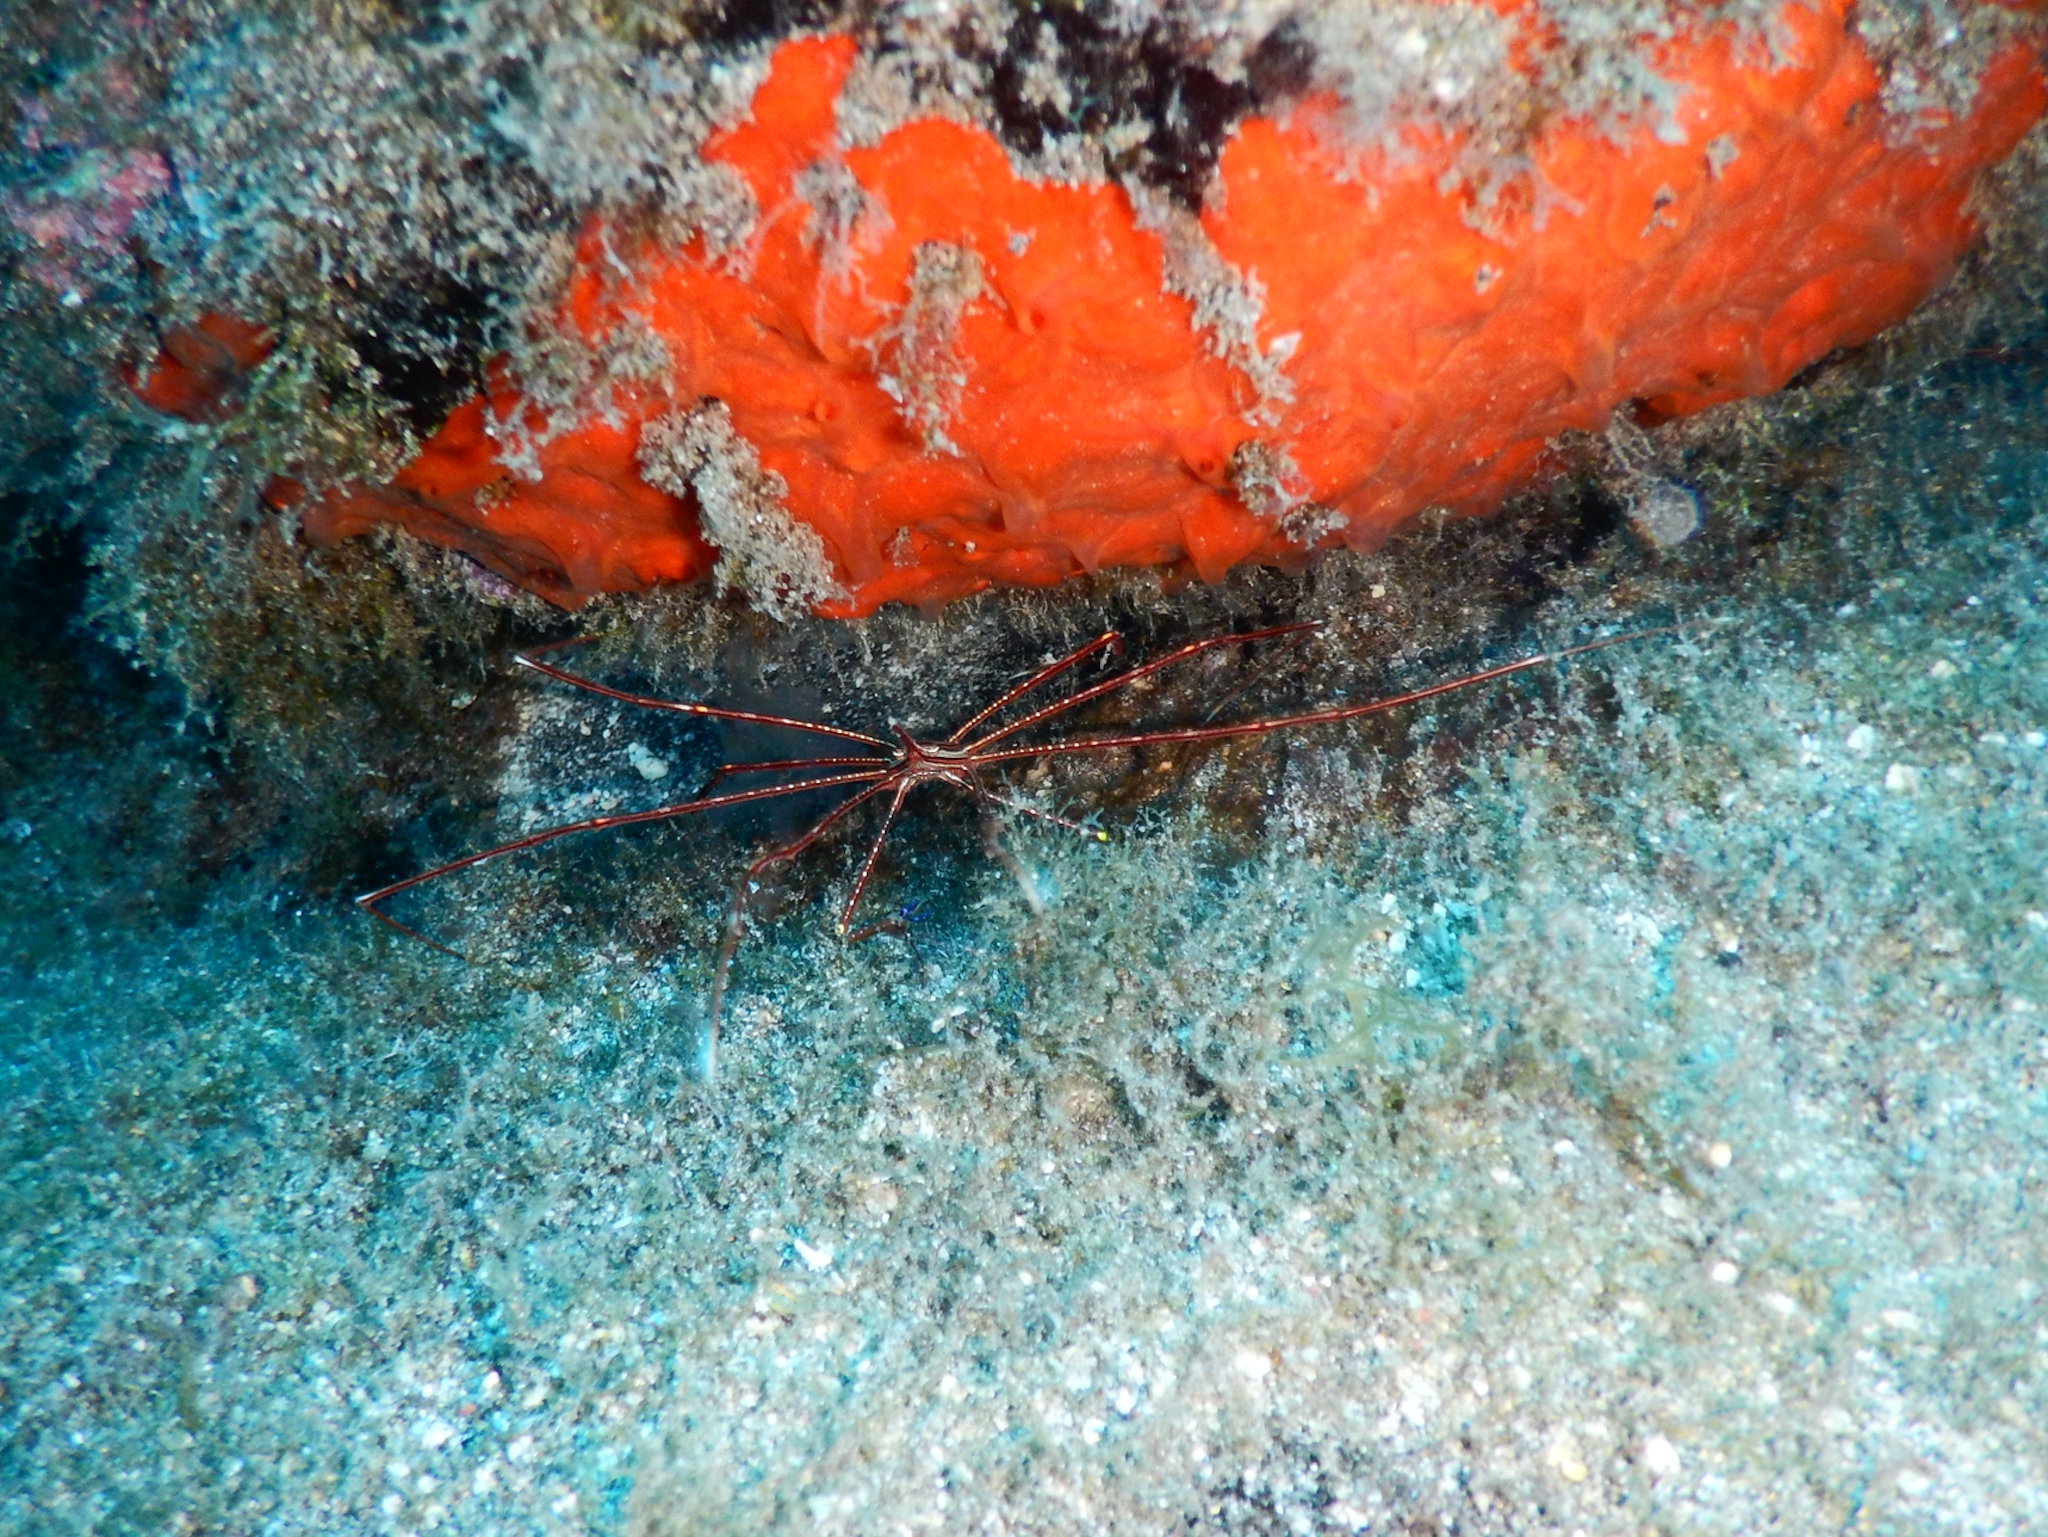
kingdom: Animalia
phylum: Arthropoda
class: Malacostraca
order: Decapoda
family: Inachoididae
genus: Stenorhynchus
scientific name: Stenorhynchus lanceolatus
